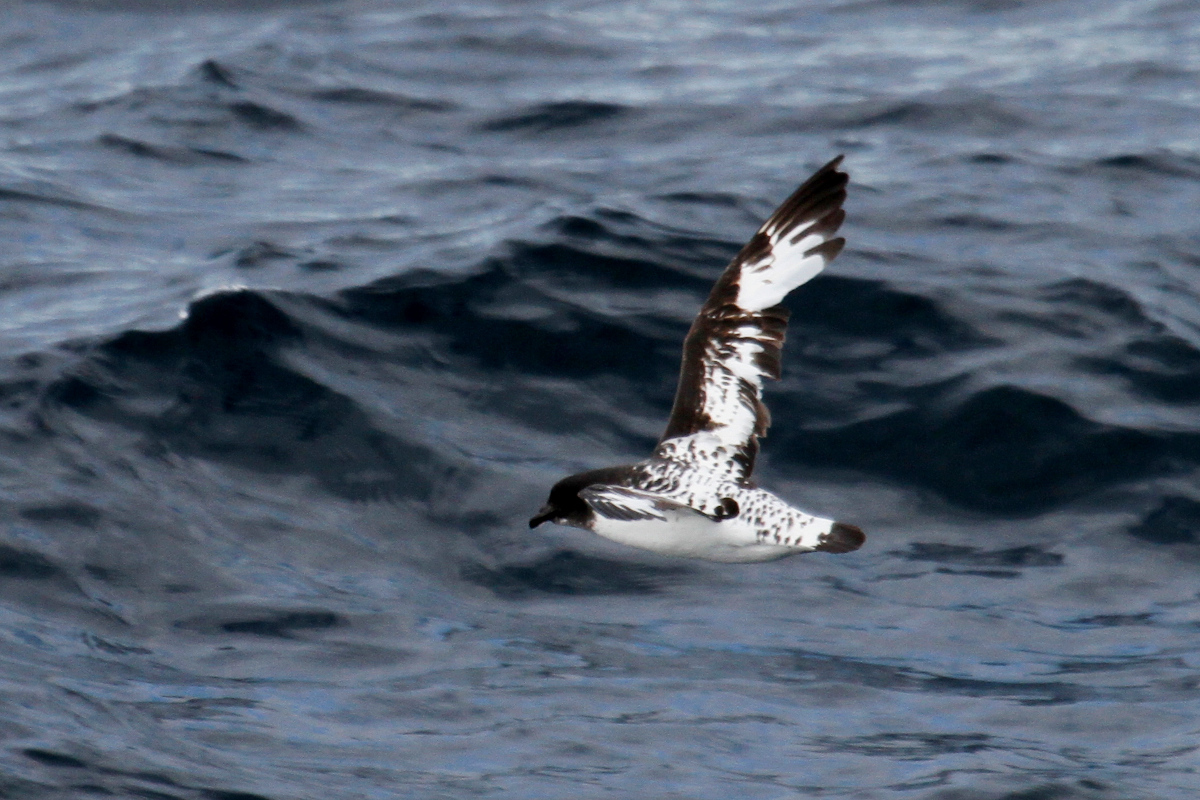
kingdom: Animalia
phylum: Chordata
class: Aves
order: Procellariiformes
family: Procellariidae
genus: Daption
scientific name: Daption capense
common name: Cape petrel
